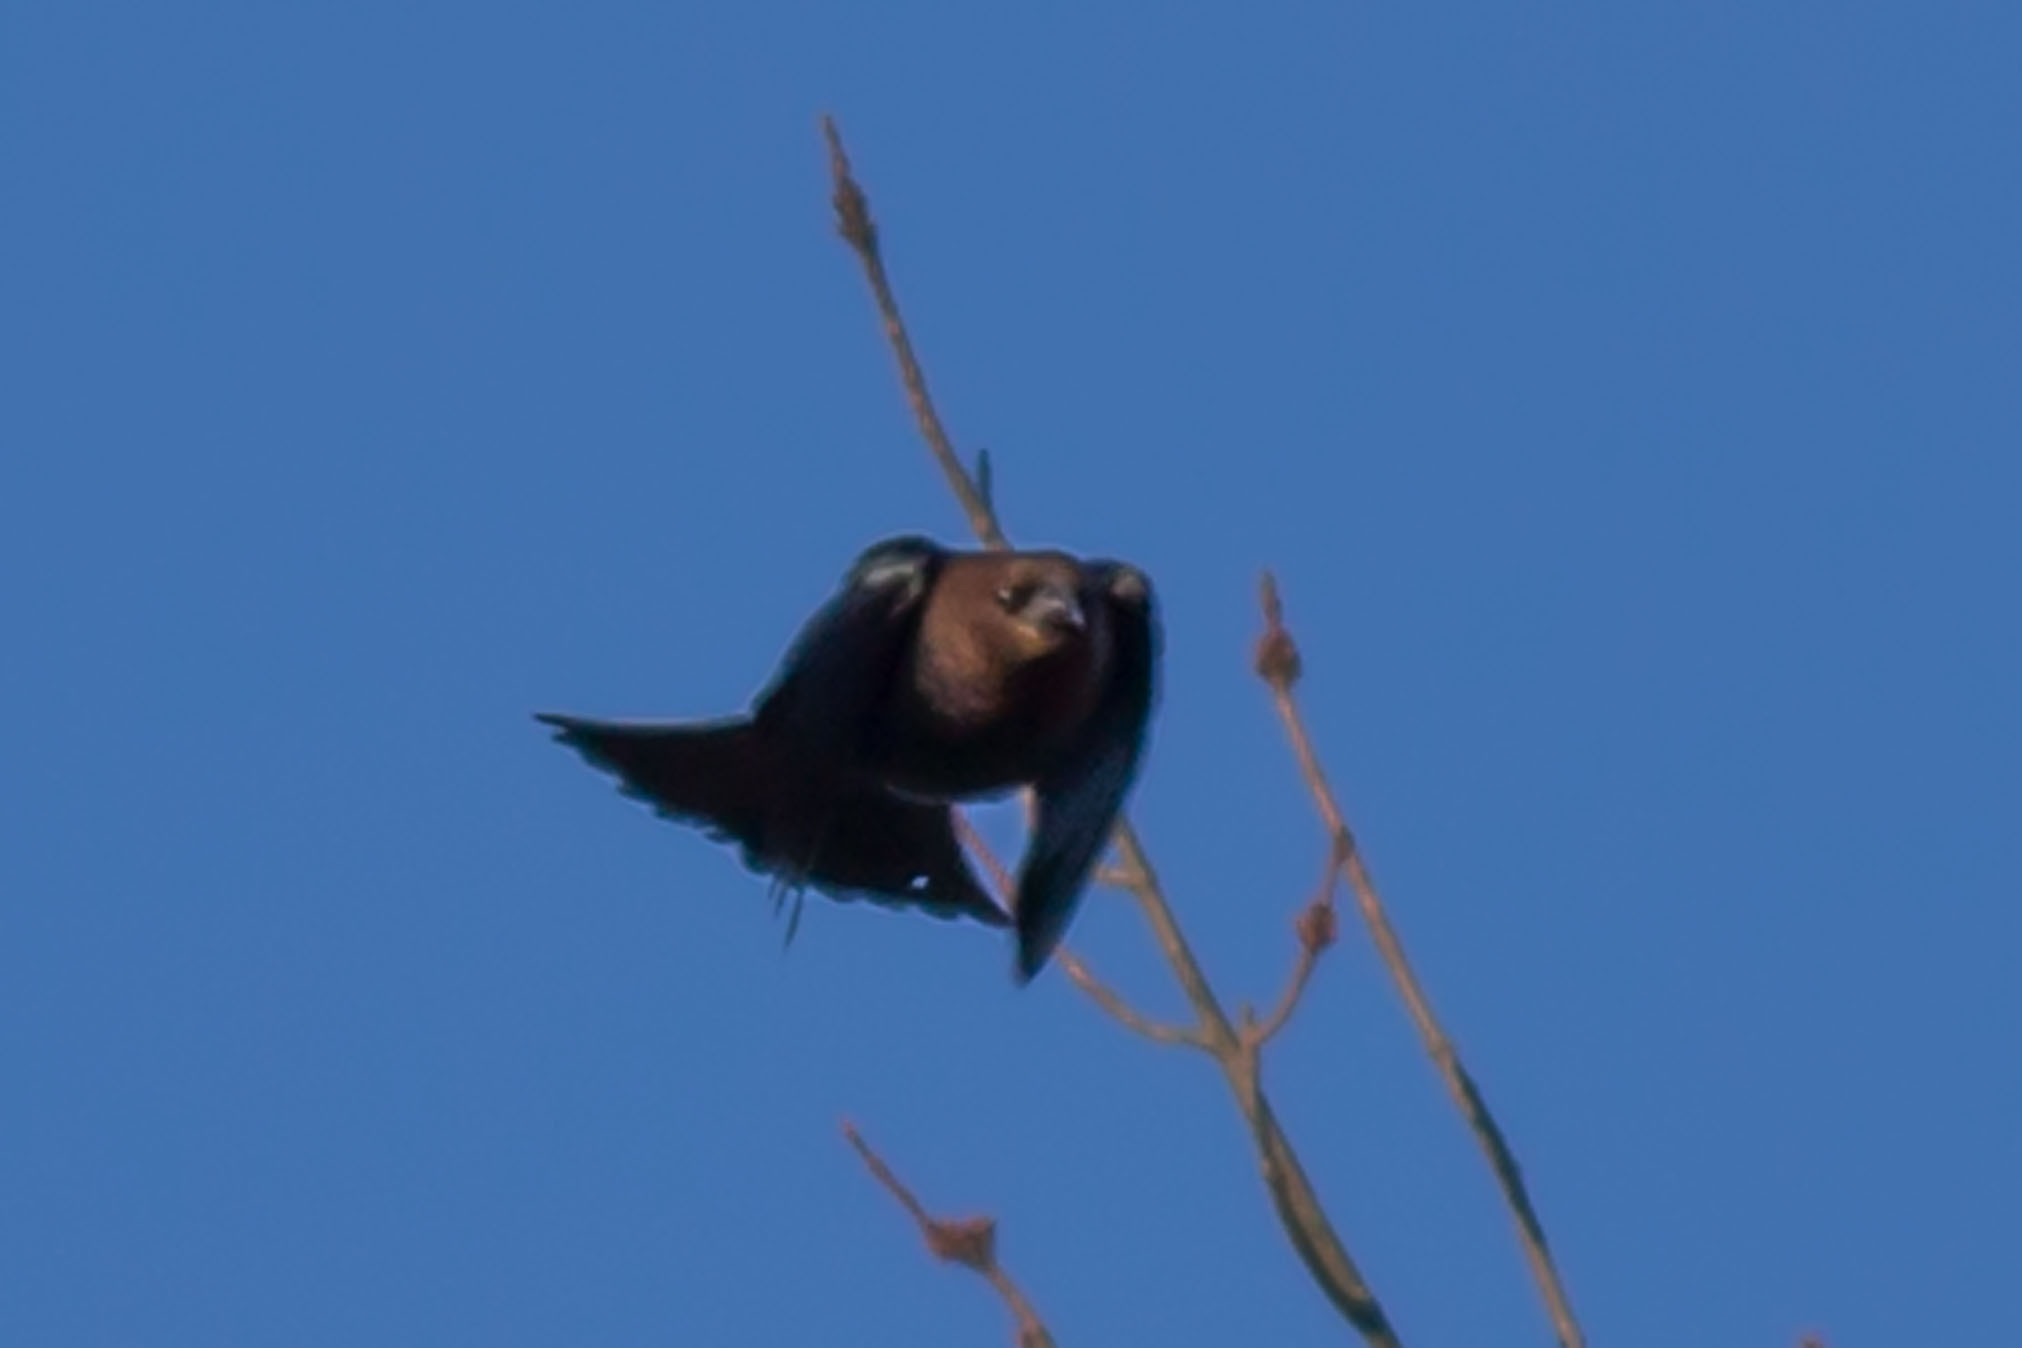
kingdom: Animalia
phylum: Chordata
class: Aves
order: Passeriformes
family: Icteridae
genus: Molothrus
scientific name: Molothrus ater
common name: Brown-headed cowbird
